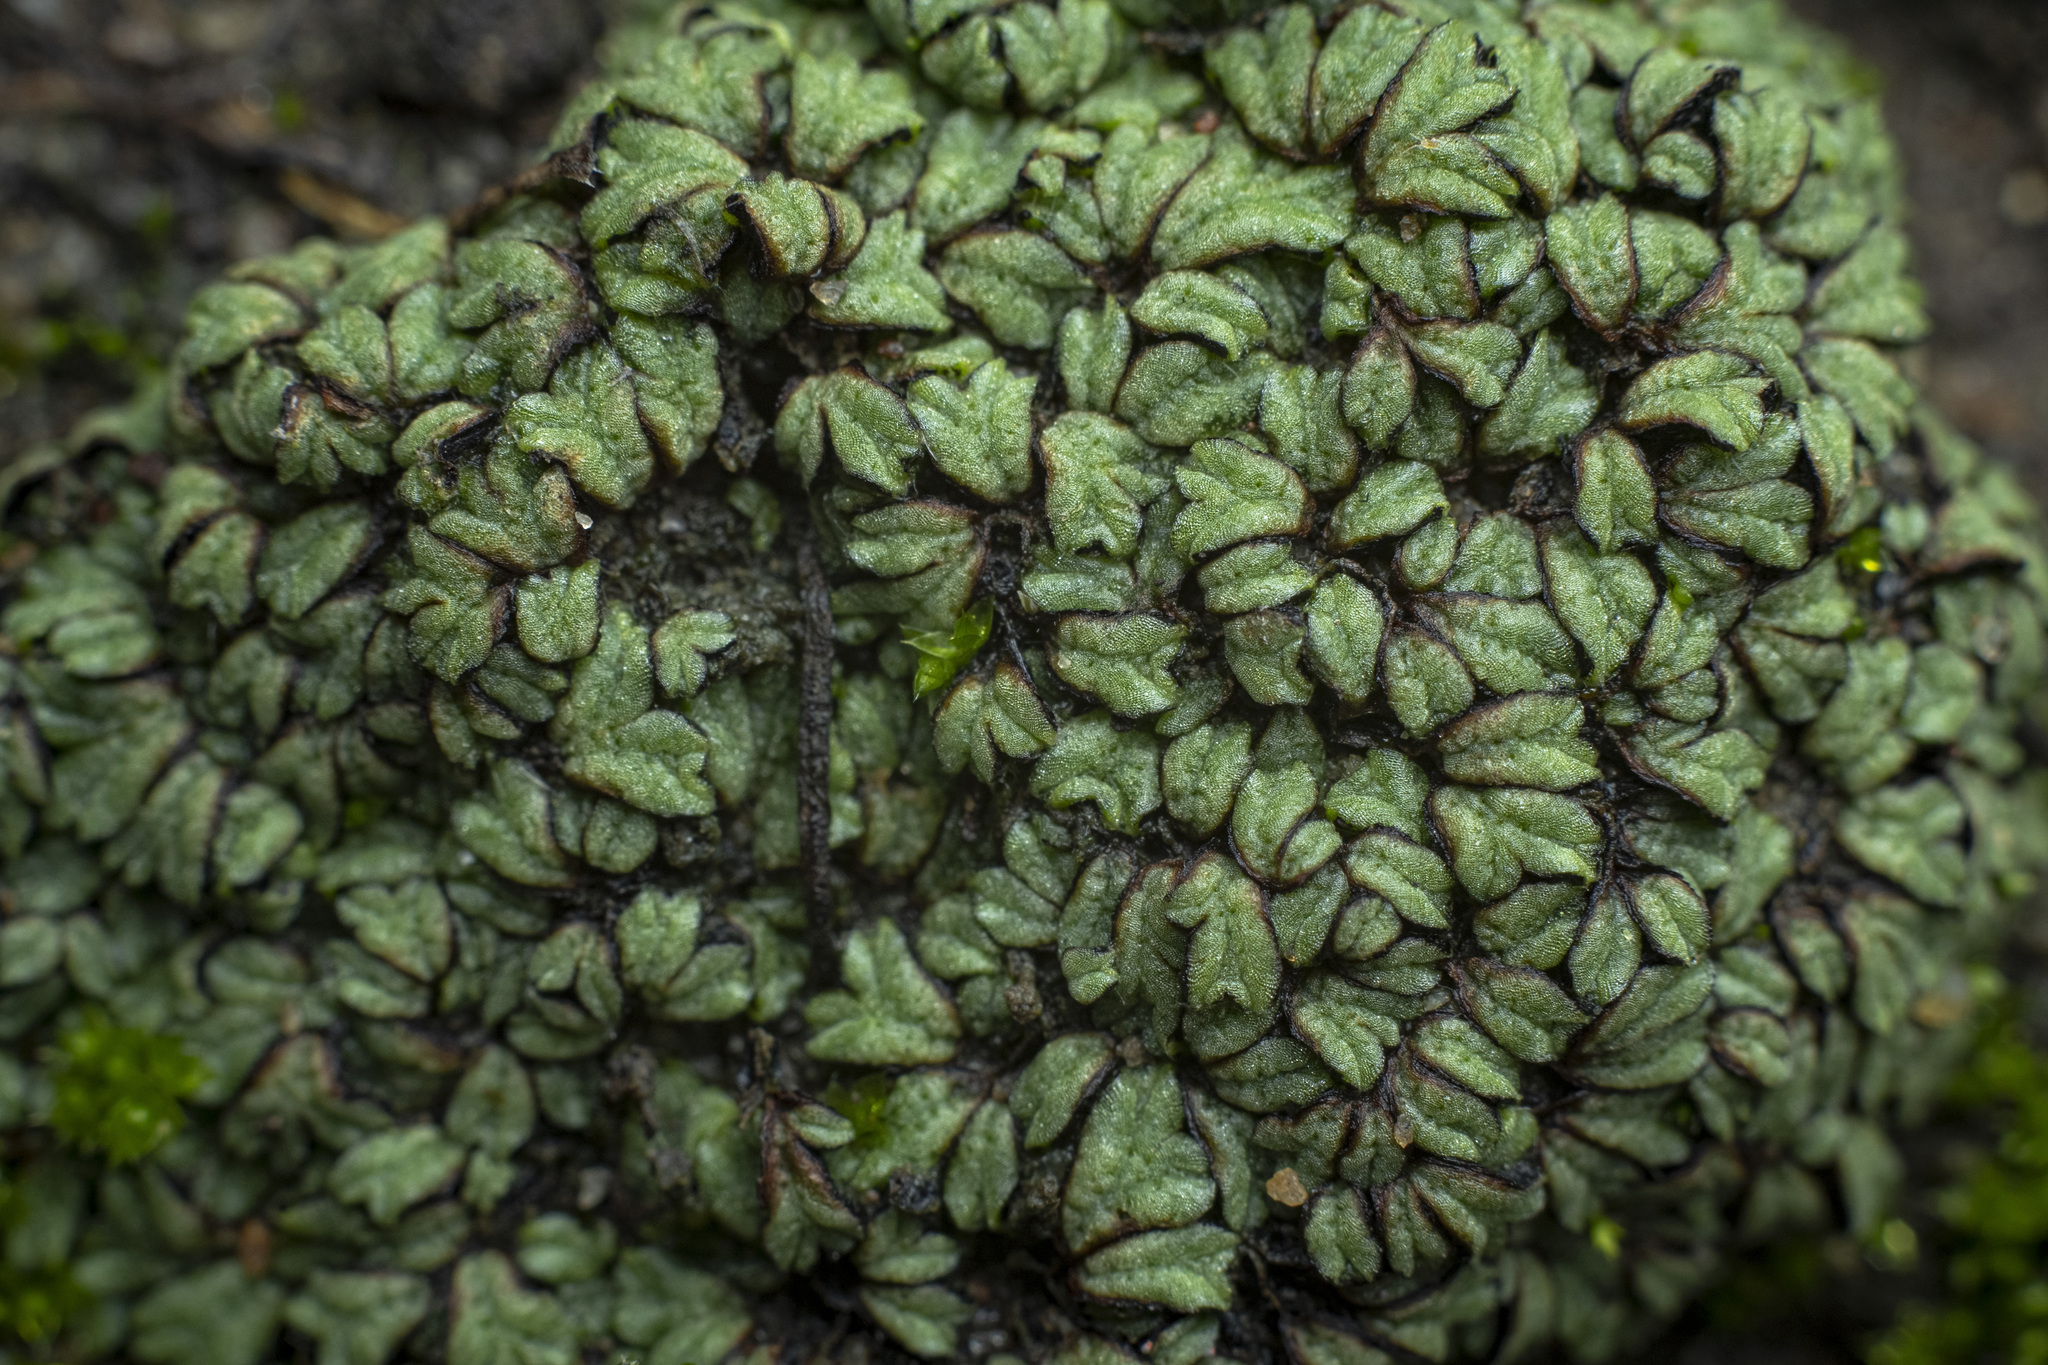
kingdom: Plantae
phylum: Marchantiophyta
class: Marchantiopsida
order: Marchantiales
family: Ricciaceae
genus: Riccia
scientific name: Riccia nigrella
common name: Black crystalwort
